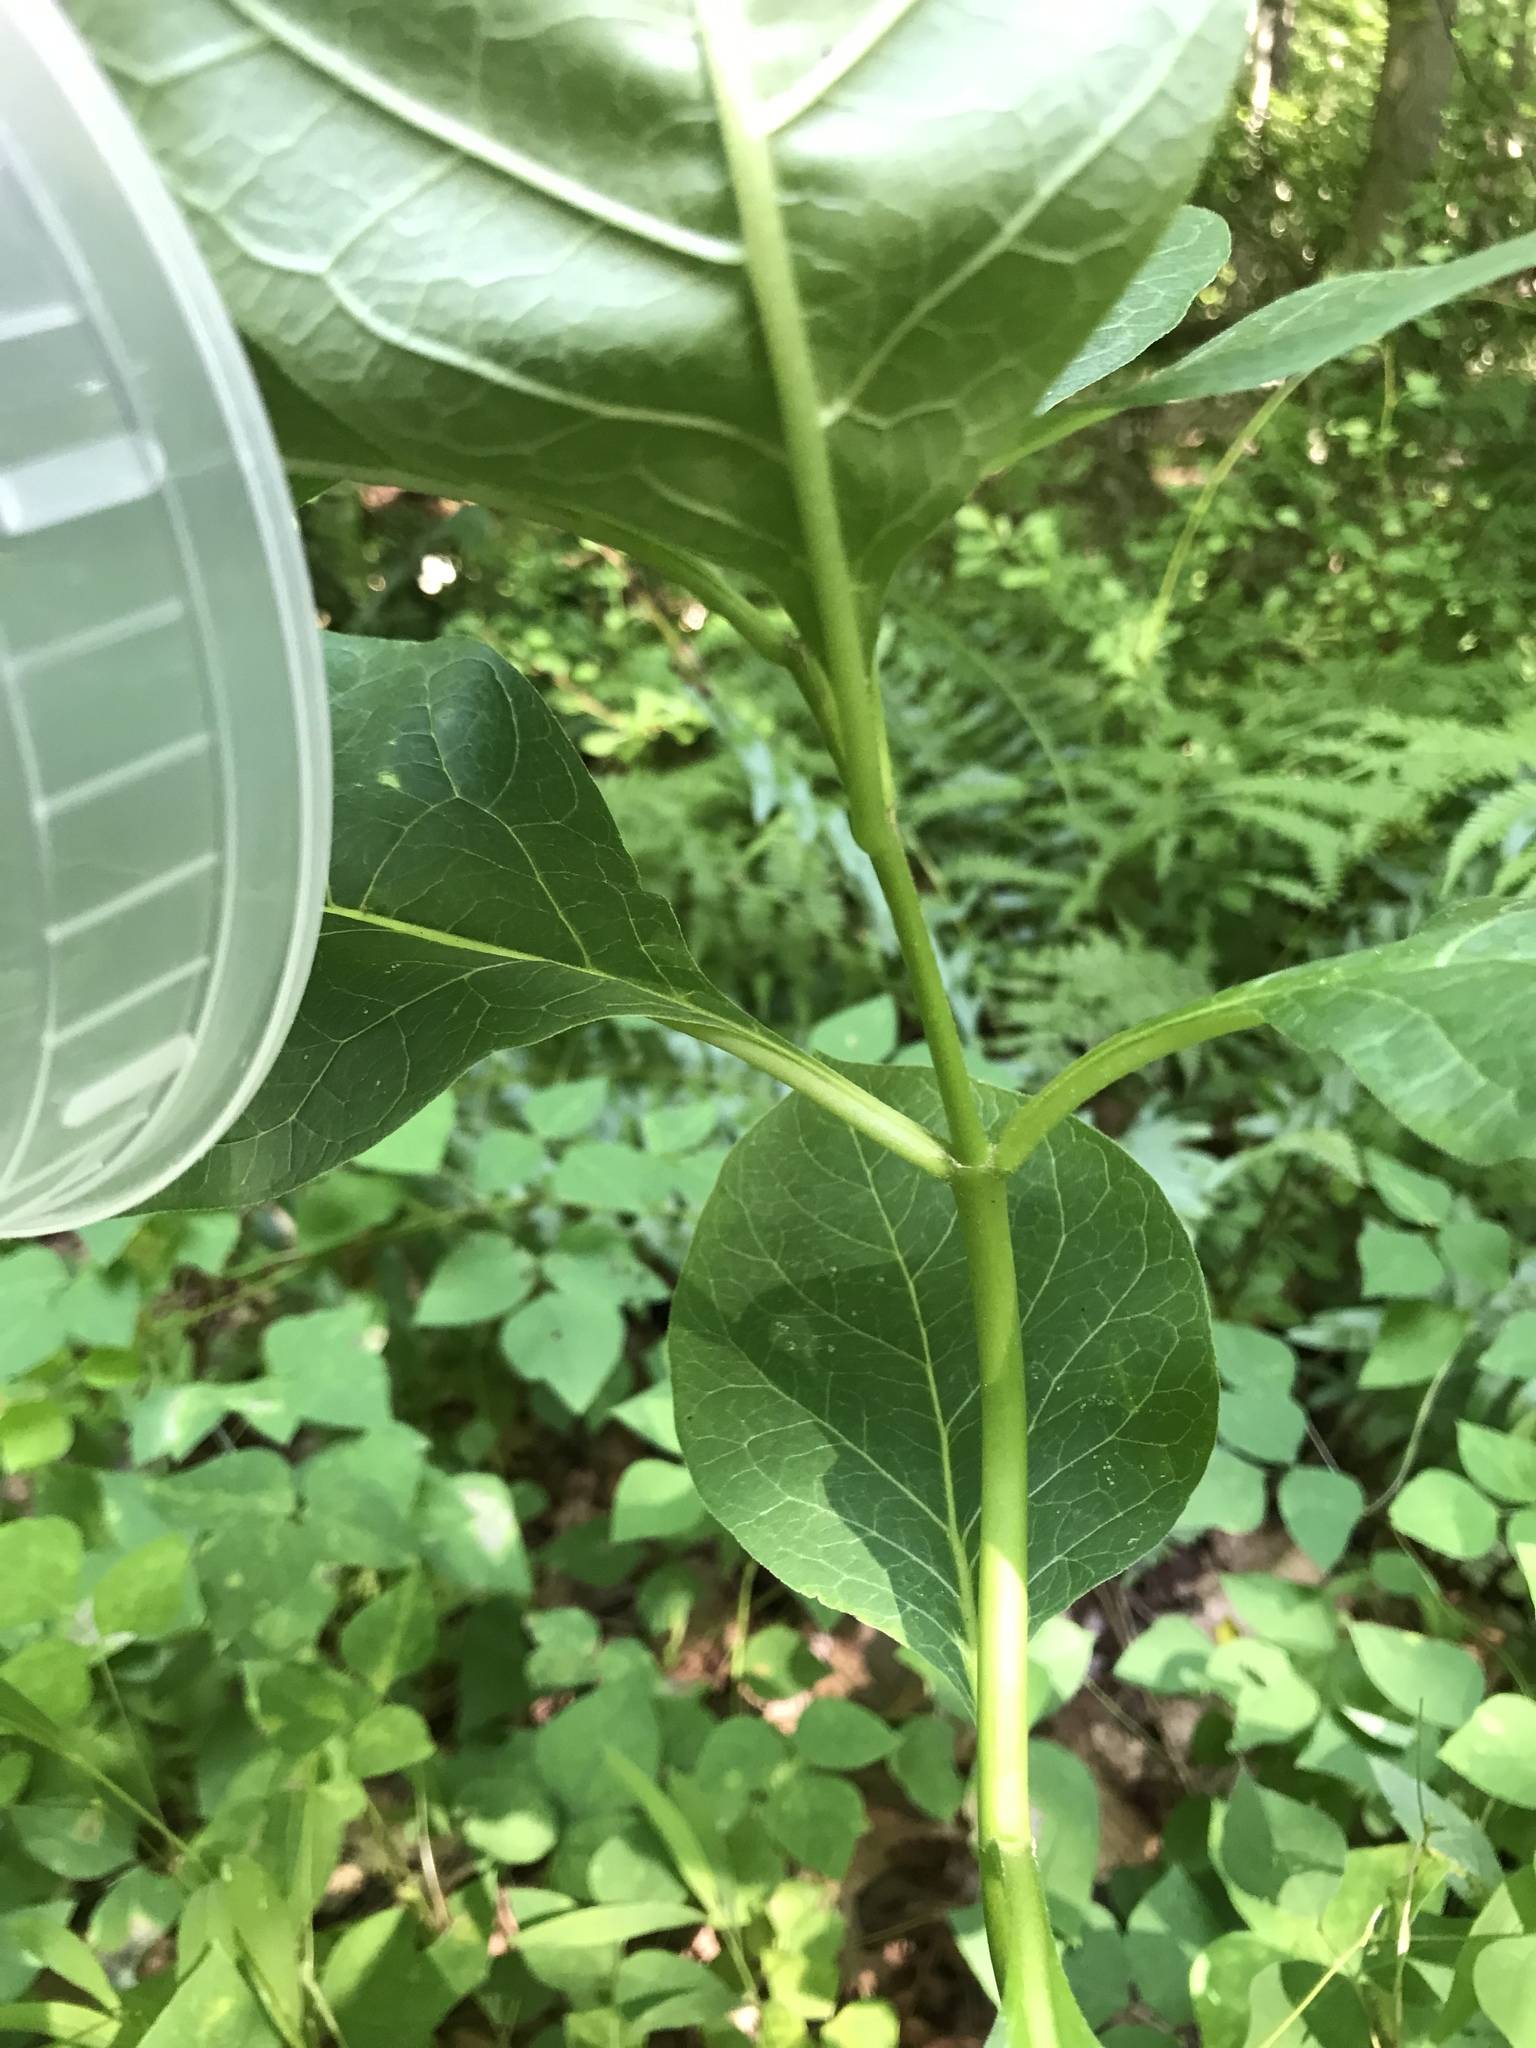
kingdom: Plantae
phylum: Tracheophyta
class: Magnoliopsida
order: Gentianales
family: Apocynaceae
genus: Asclepias
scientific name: Asclepias exaltata
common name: Poke milkweed
